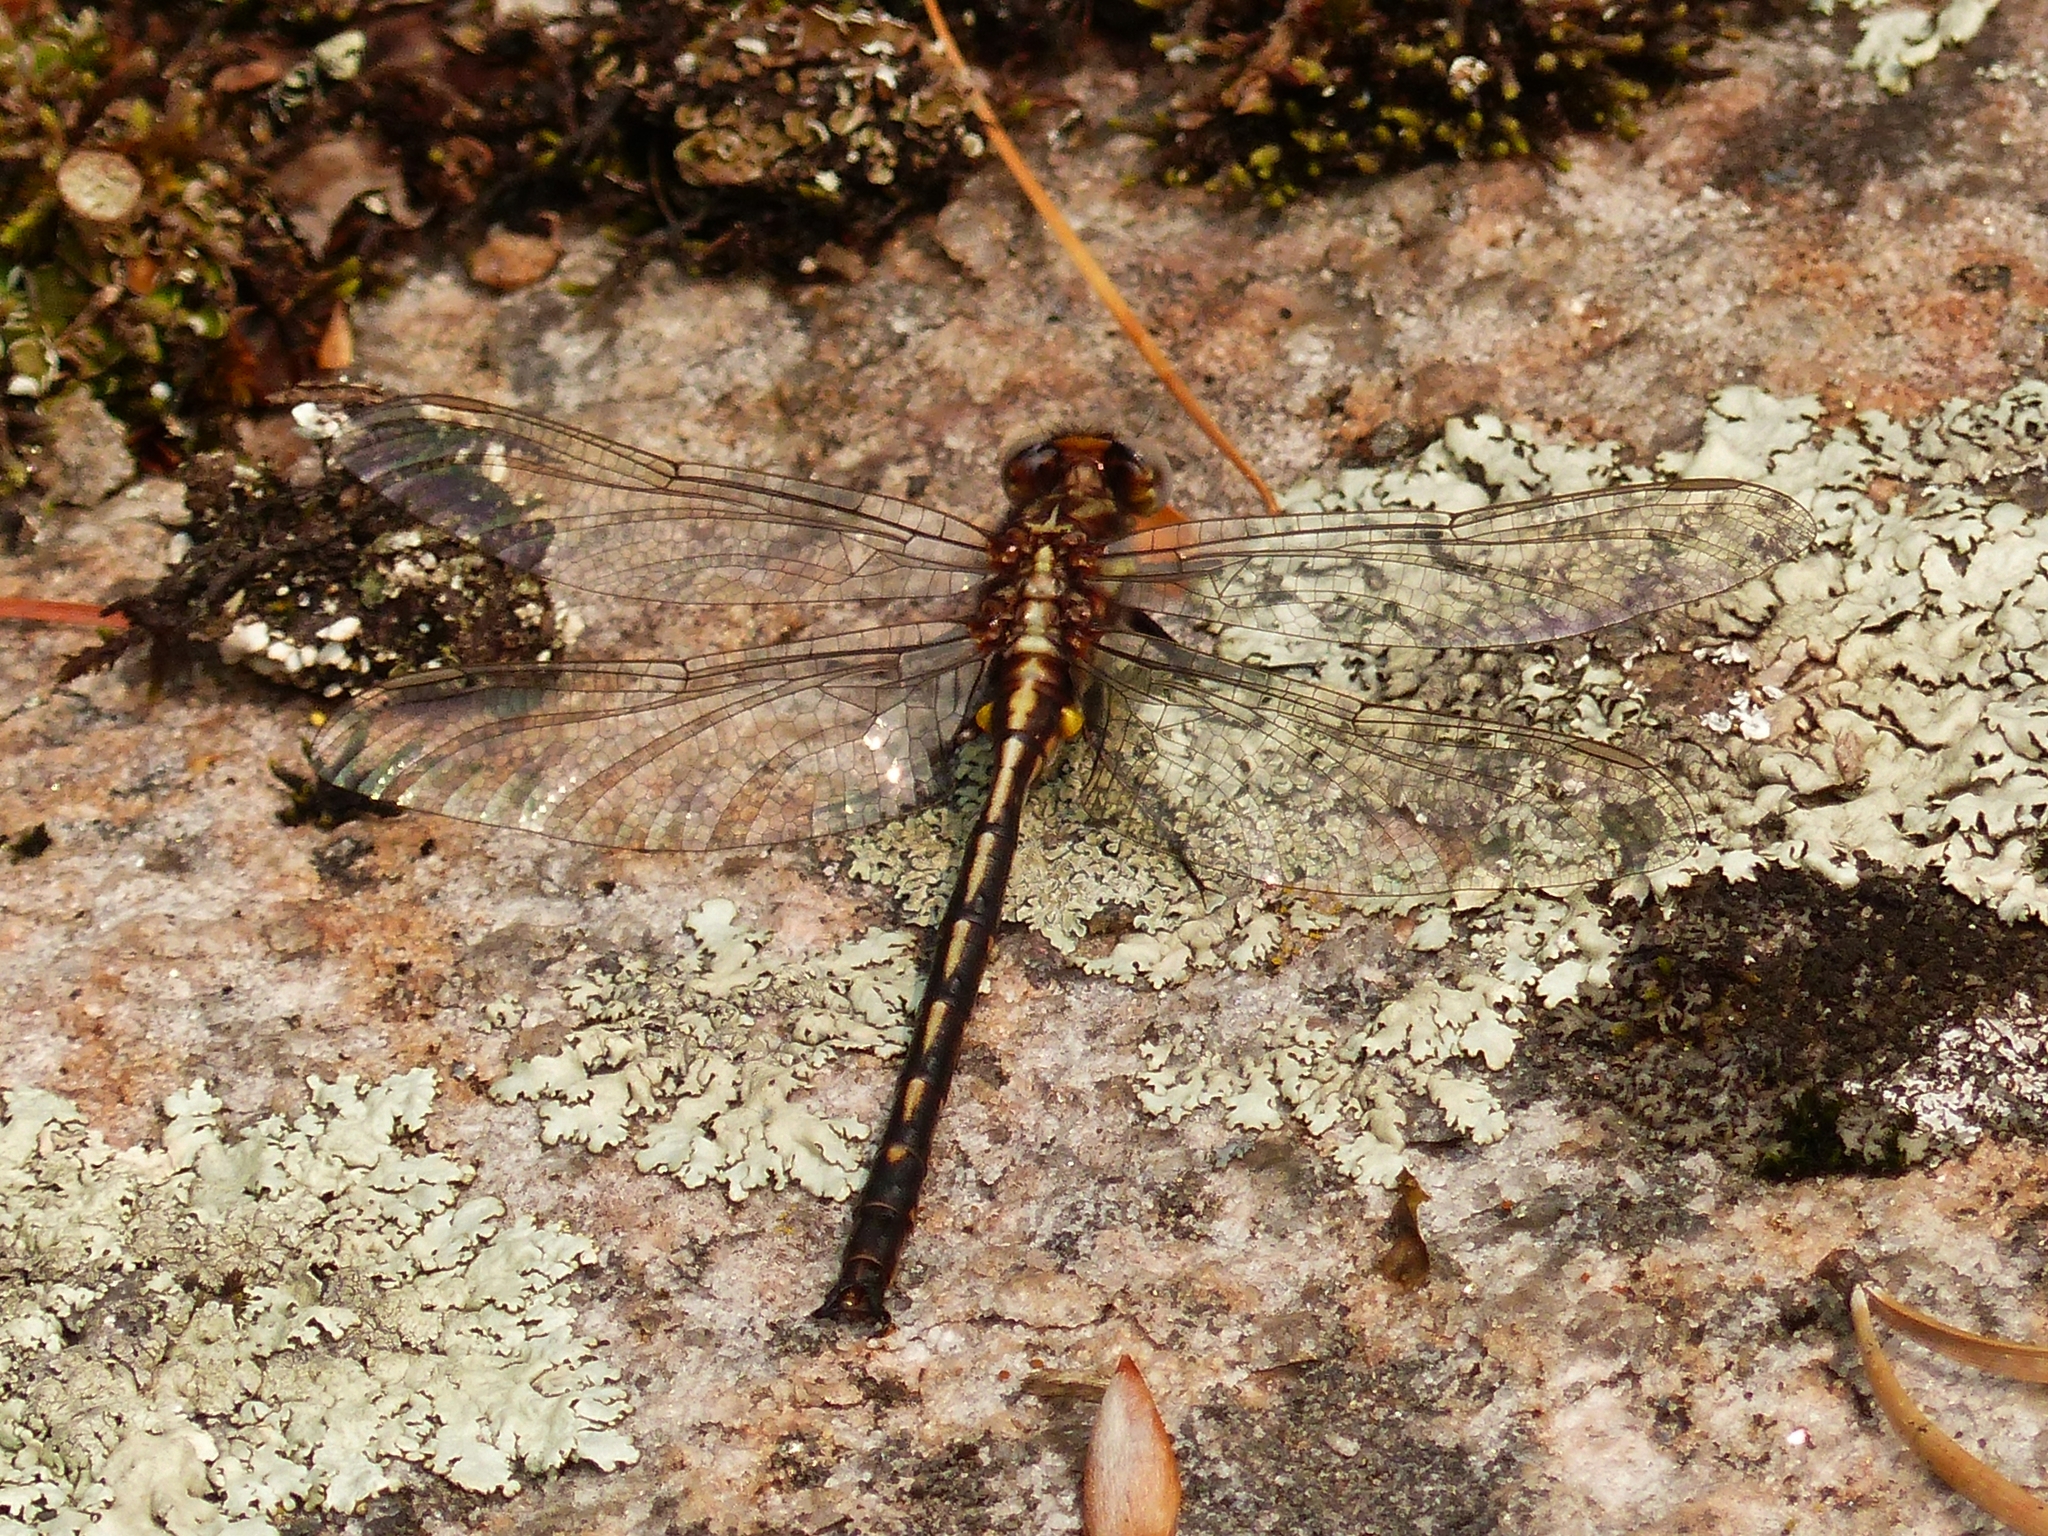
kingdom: Animalia
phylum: Arthropoda
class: Insecta
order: Odonata
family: Gomphidae
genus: Phanogomphus
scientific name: Phanogomphus spicatus
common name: Dusky clubtail
